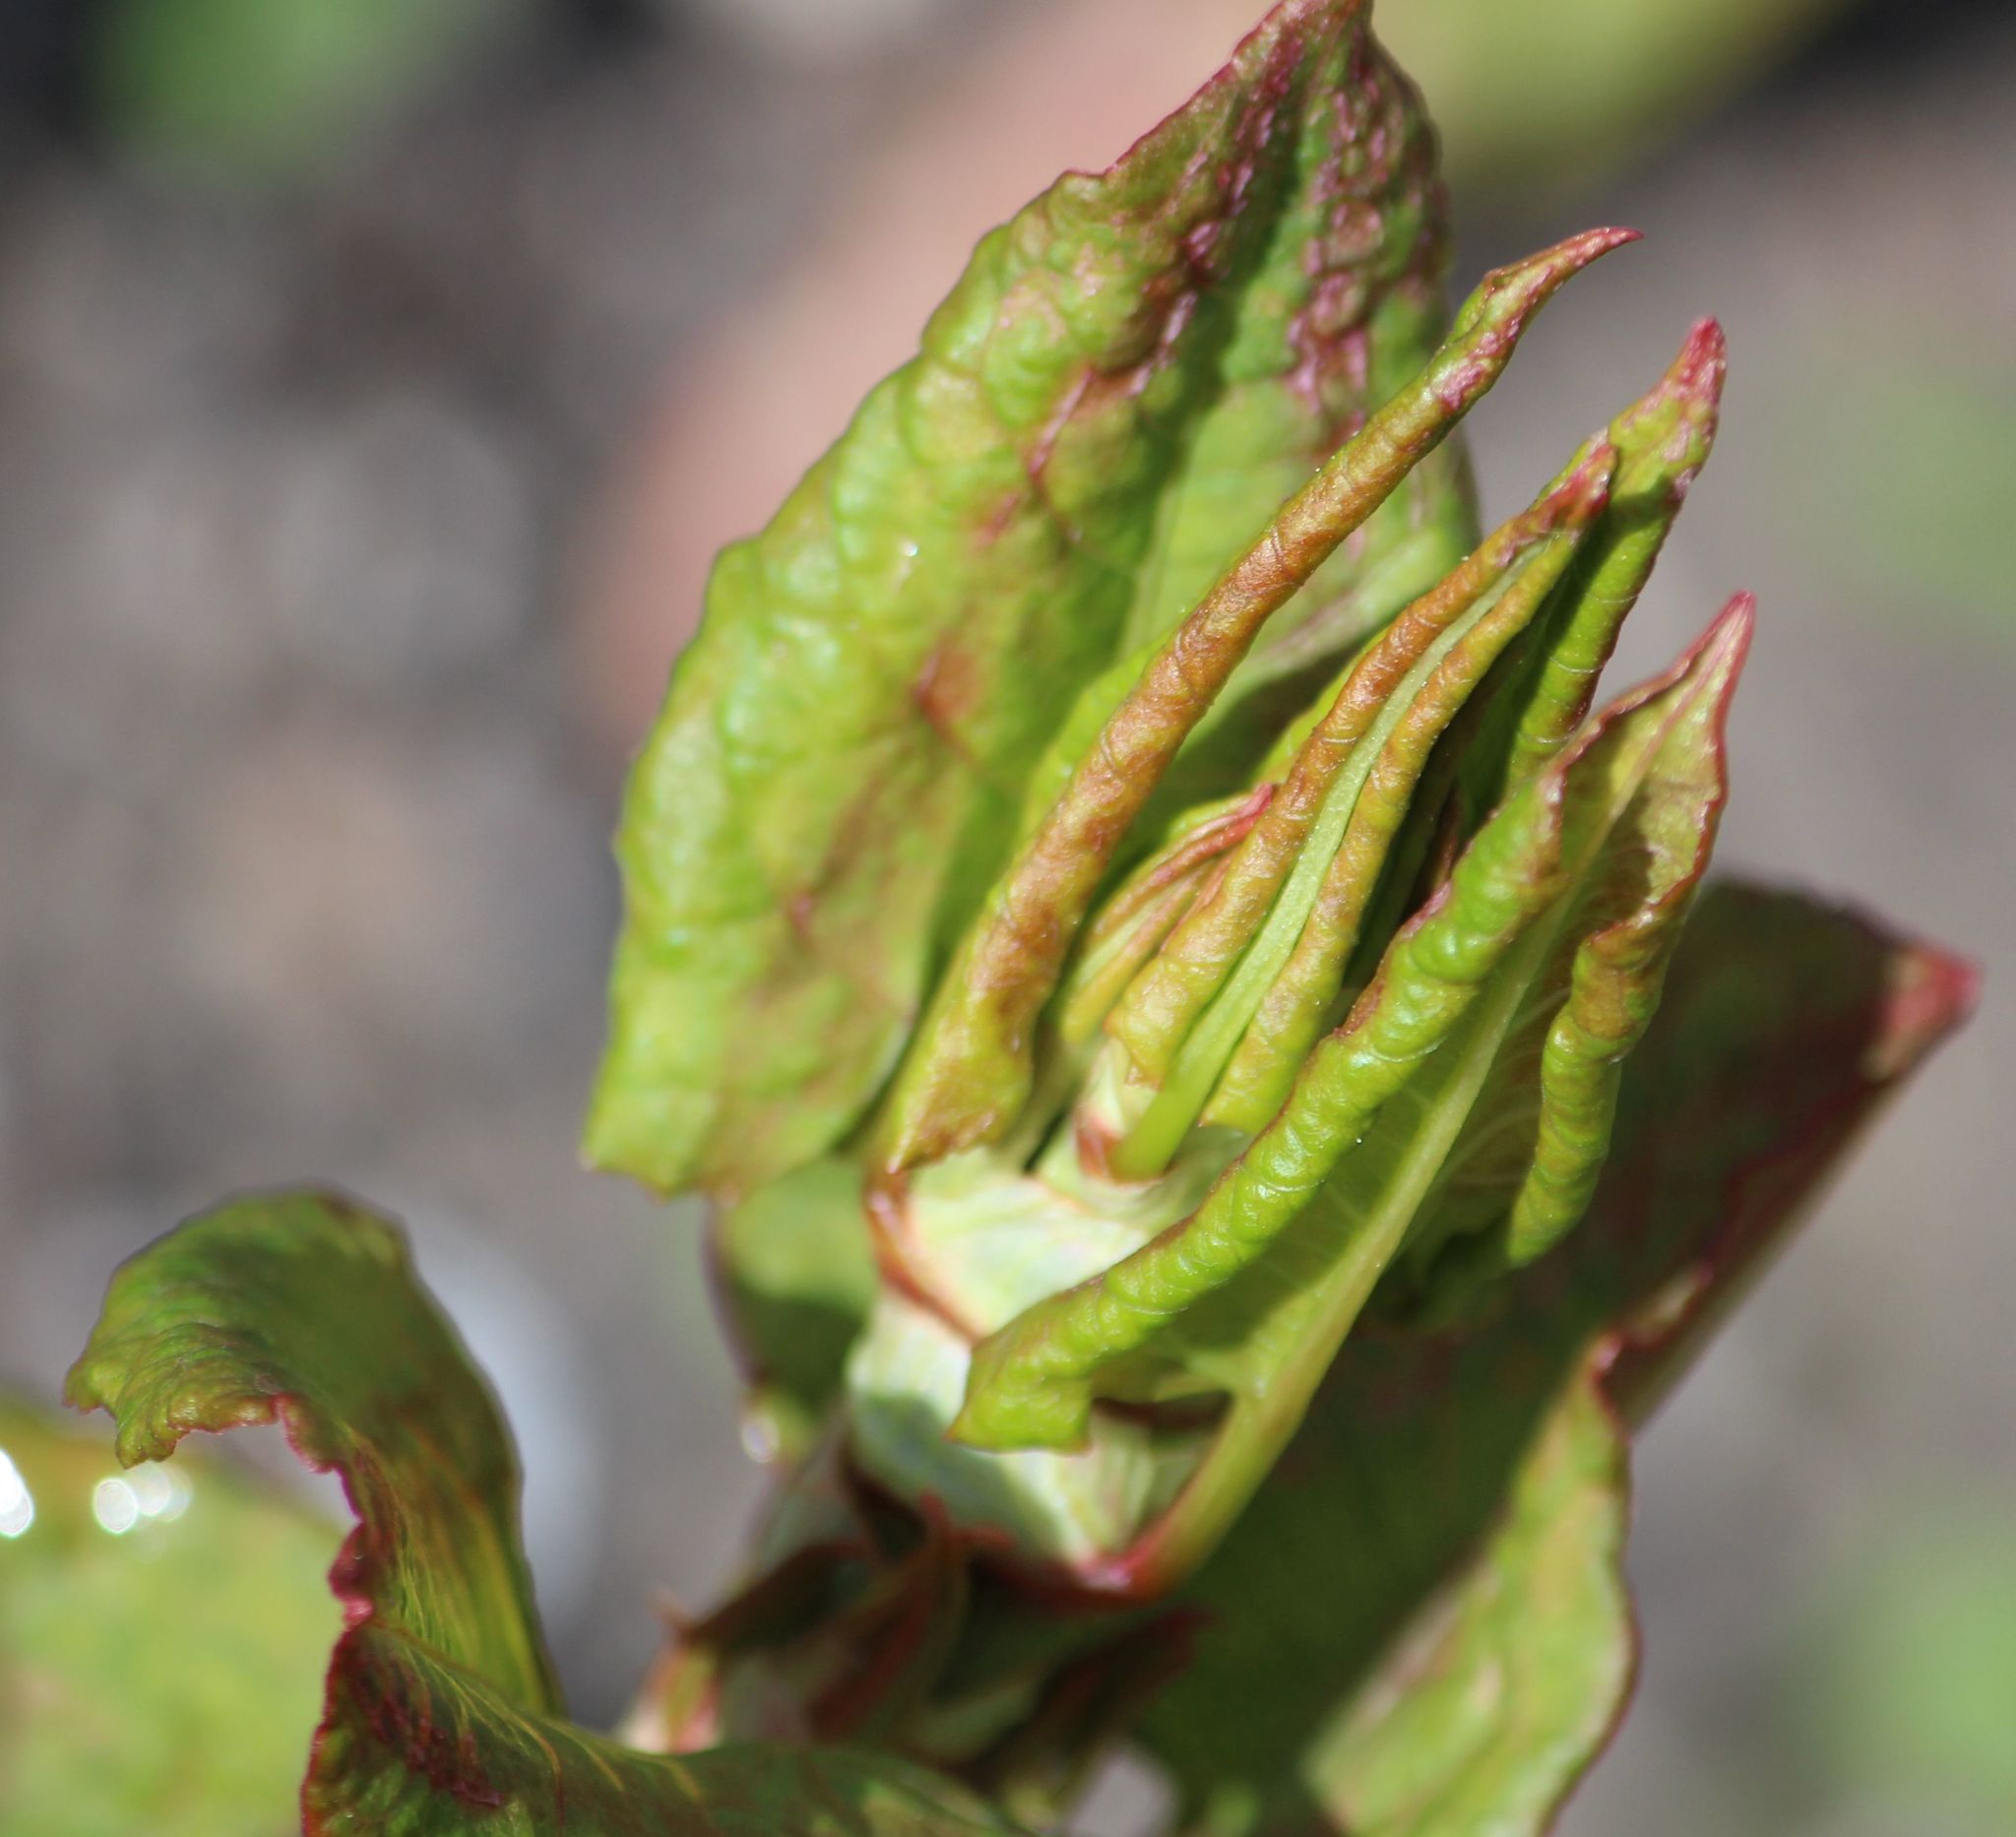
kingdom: Plantae
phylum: Tracheophyta
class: Magnoliopsida
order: Caryophyllales
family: Polygonaceae
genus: Reynoutria
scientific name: Reynoutria japonica
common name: Japanese knotweed
